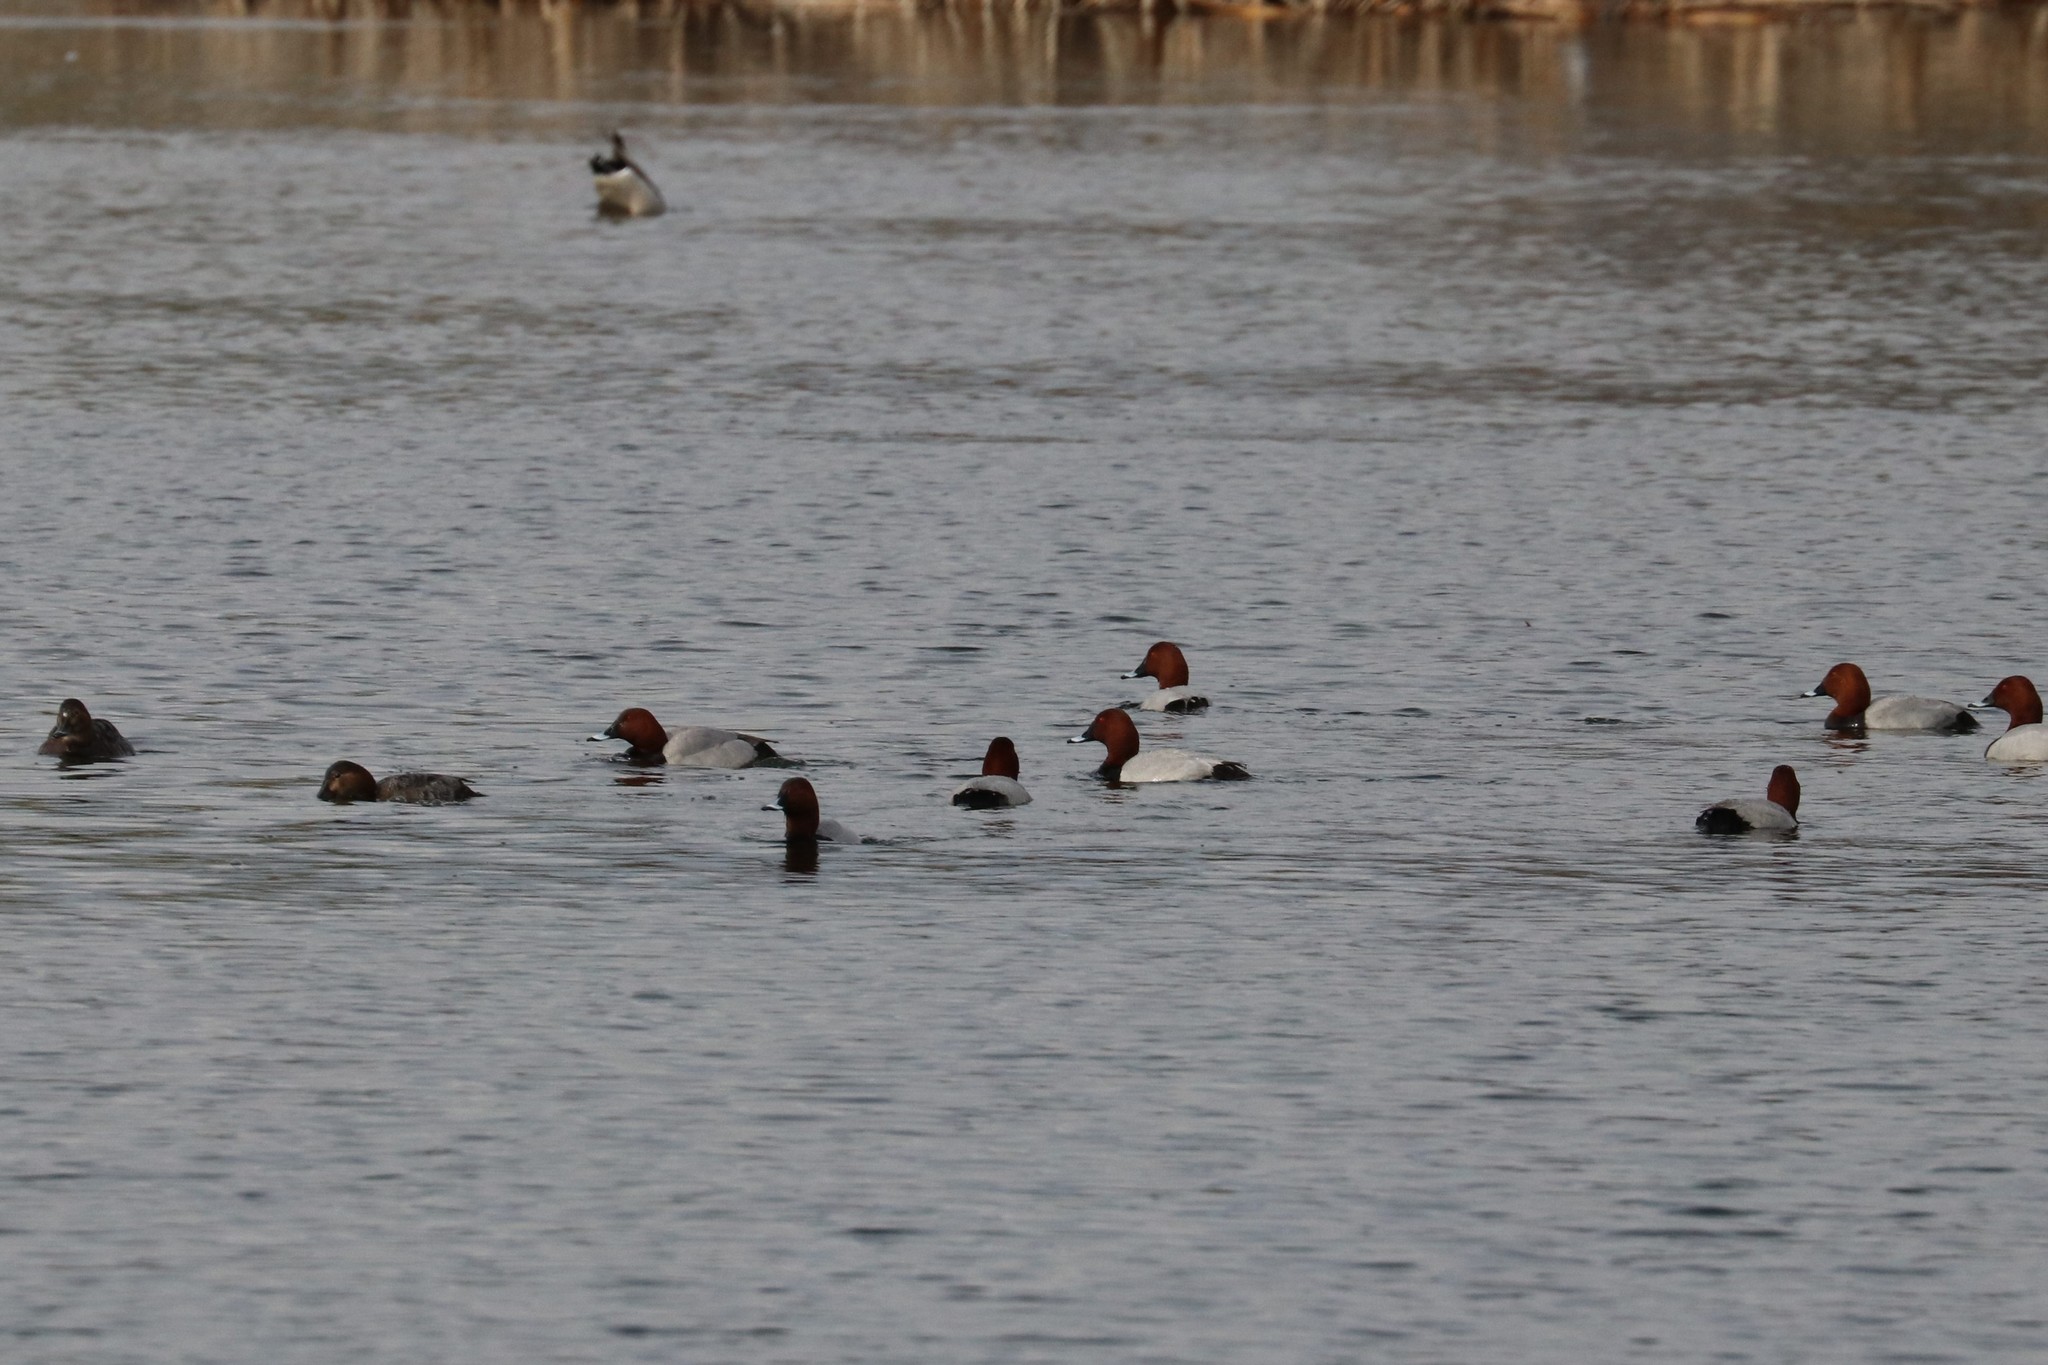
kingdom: Animalia
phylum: Chordata
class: Aves
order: Anseriformes
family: Anatidae
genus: Aythya
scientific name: Aythya ferina
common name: Common pochard
